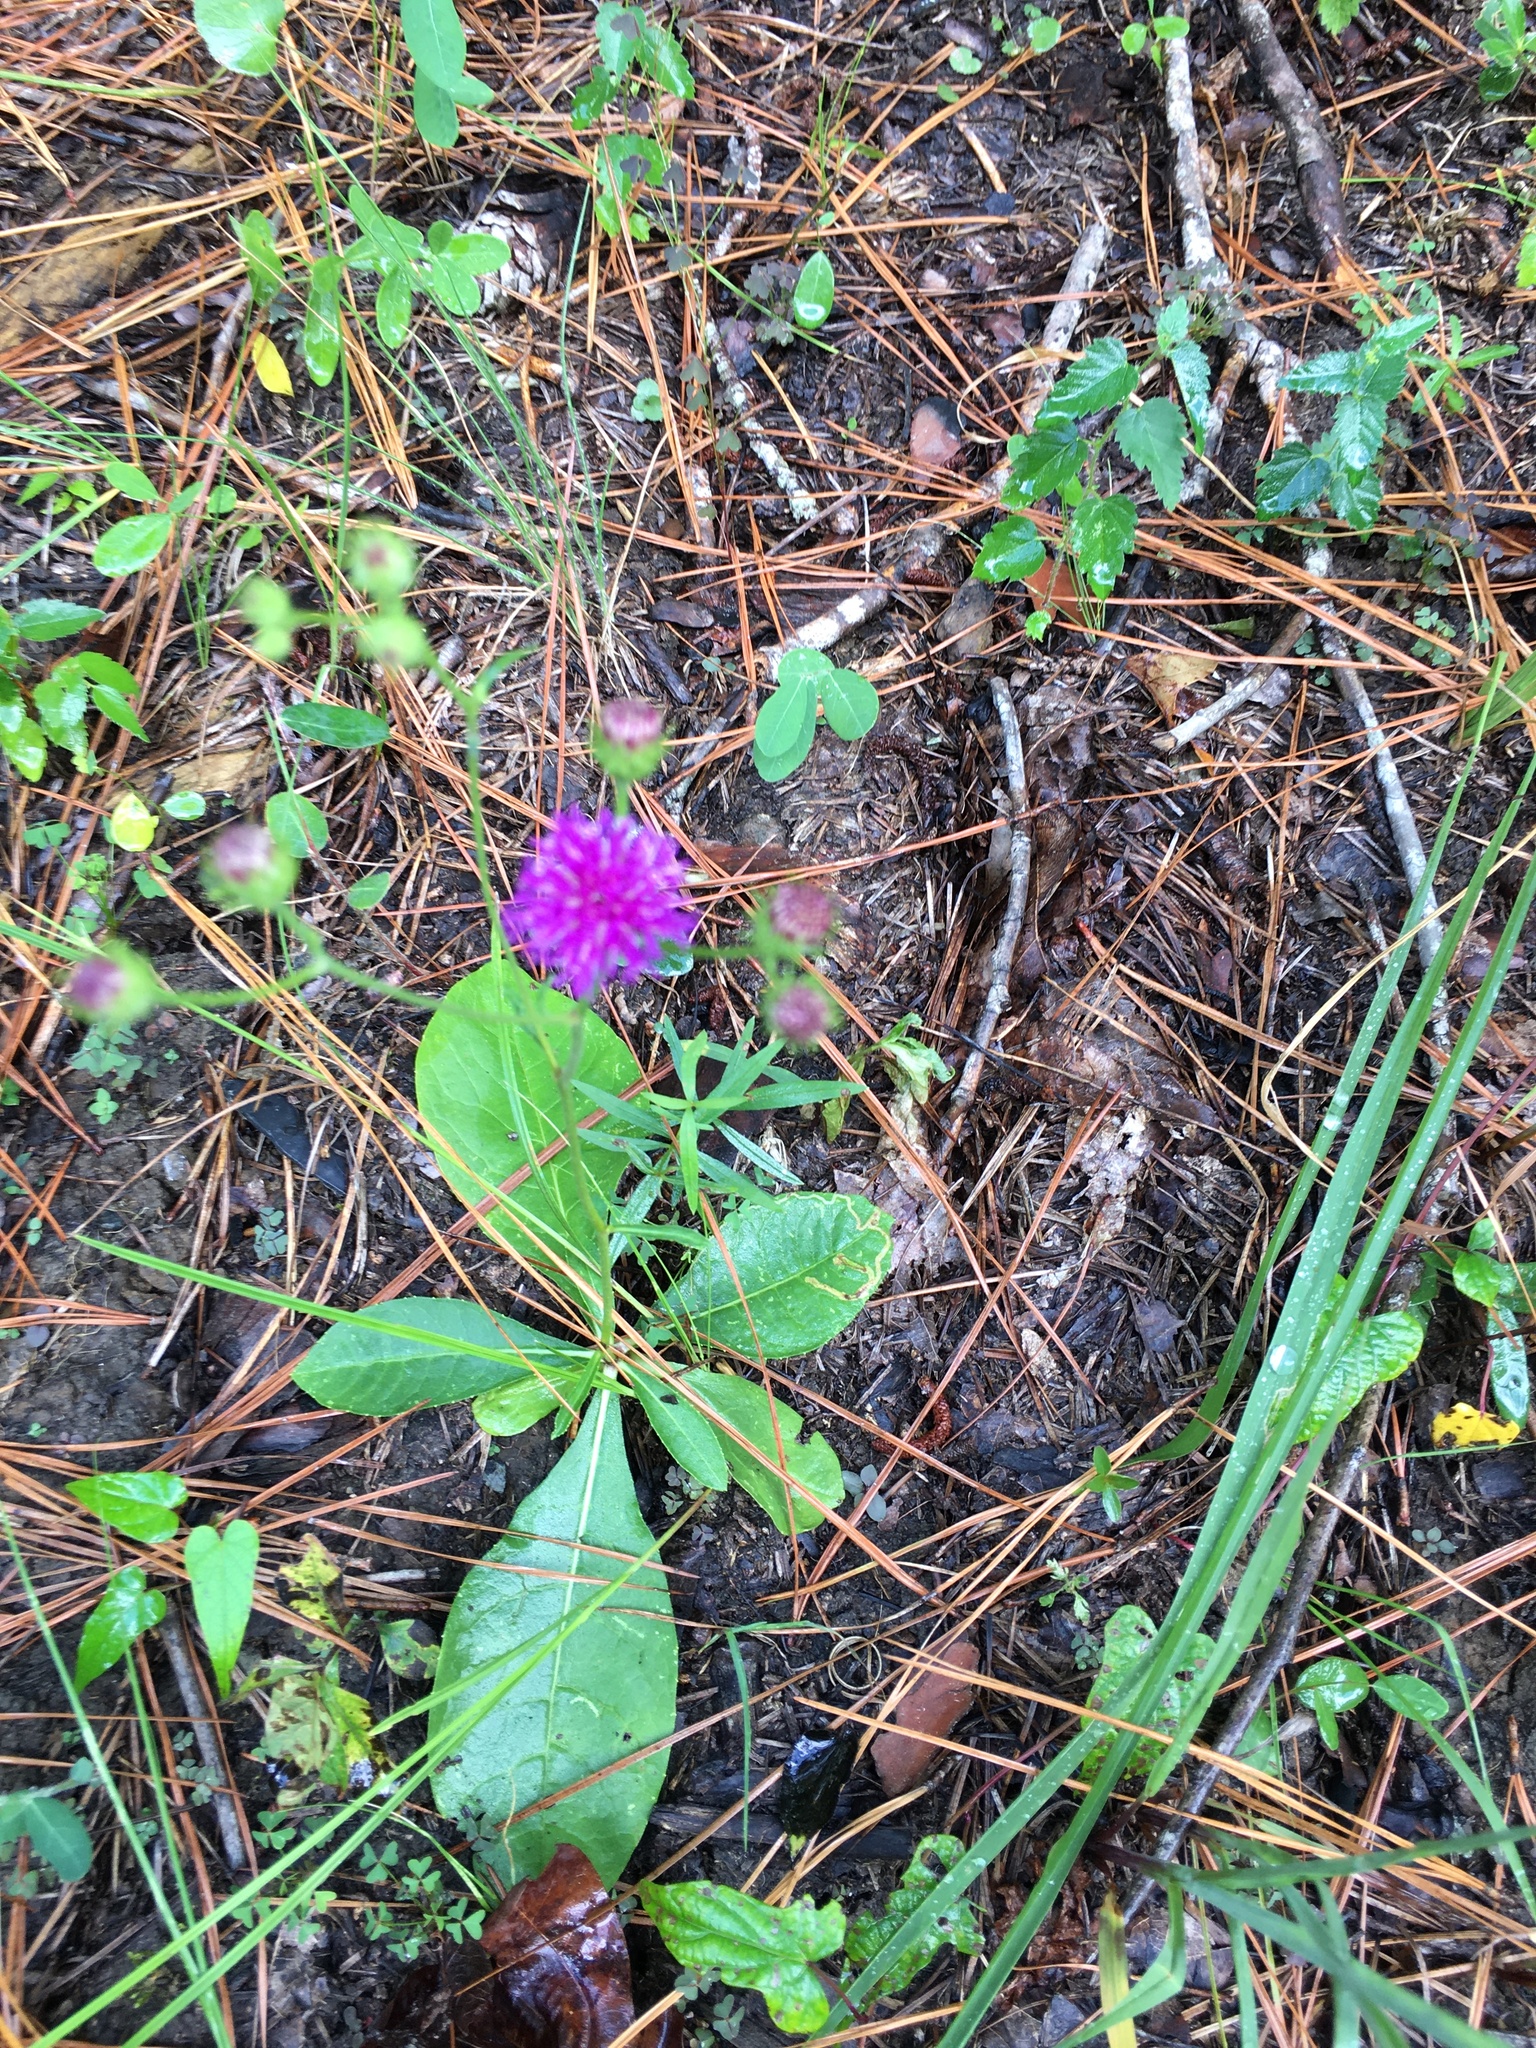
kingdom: Plantae
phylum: Tracheophyta
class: Magnoliopsida
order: Asterales
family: Asteraceae
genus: Vernonia
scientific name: Vernonia acaulis
